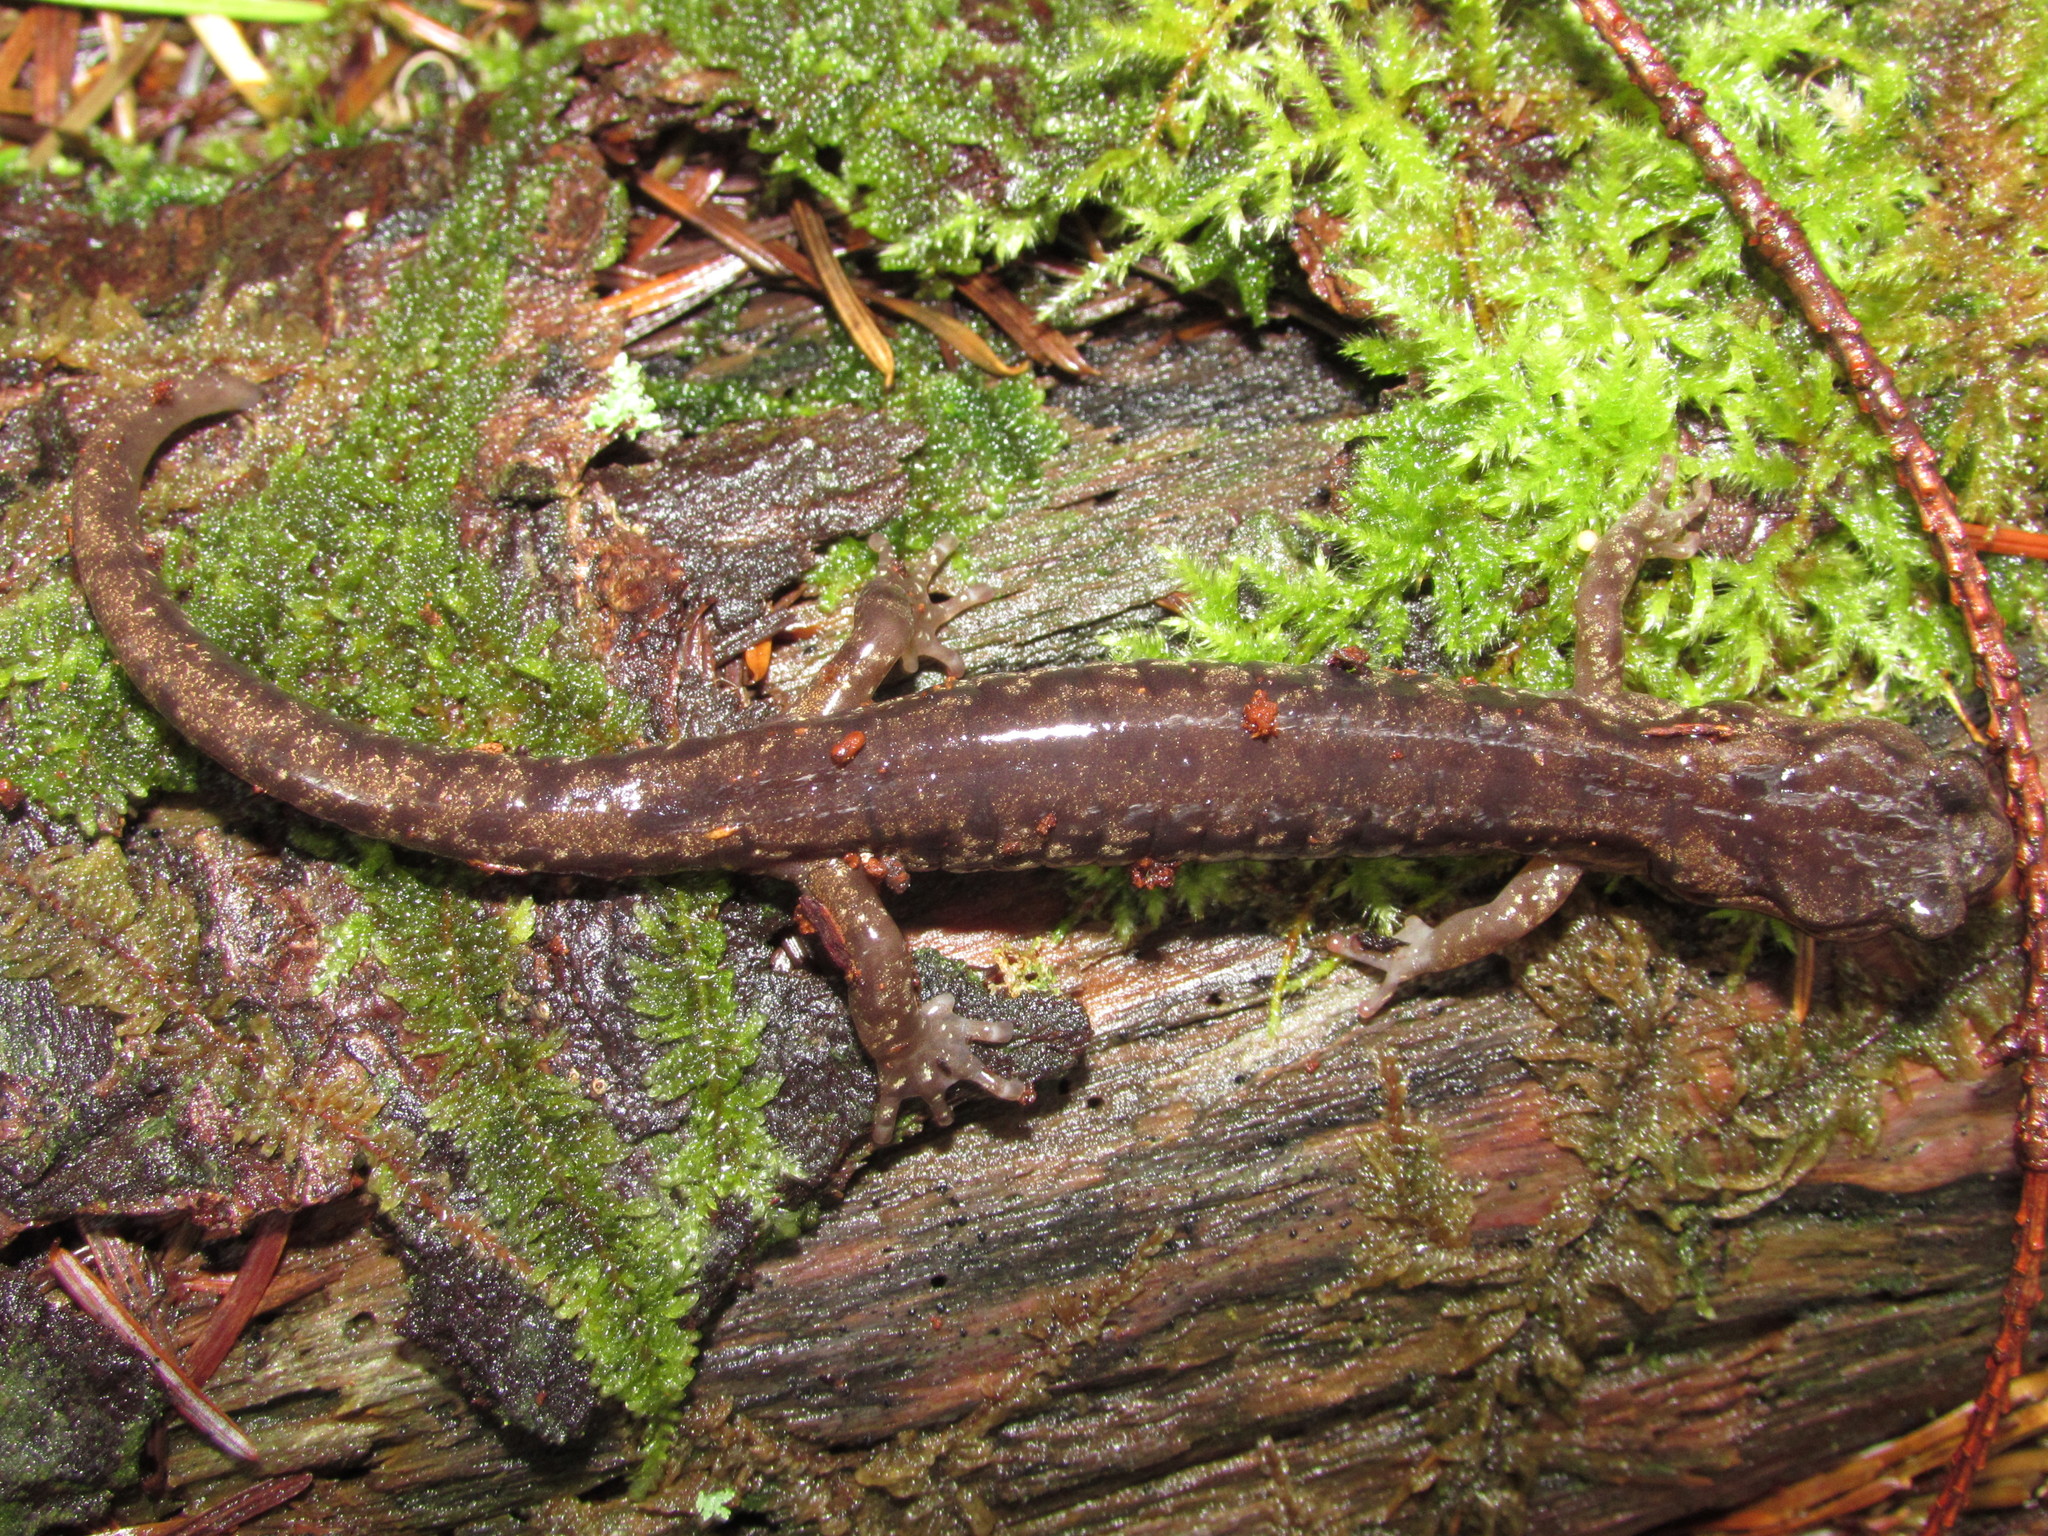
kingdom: Animalia
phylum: Chordata
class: Amphibia
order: Caudata
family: Plethodontidae
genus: Aneides
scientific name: Aneides ferreus
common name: Clouded salamander
